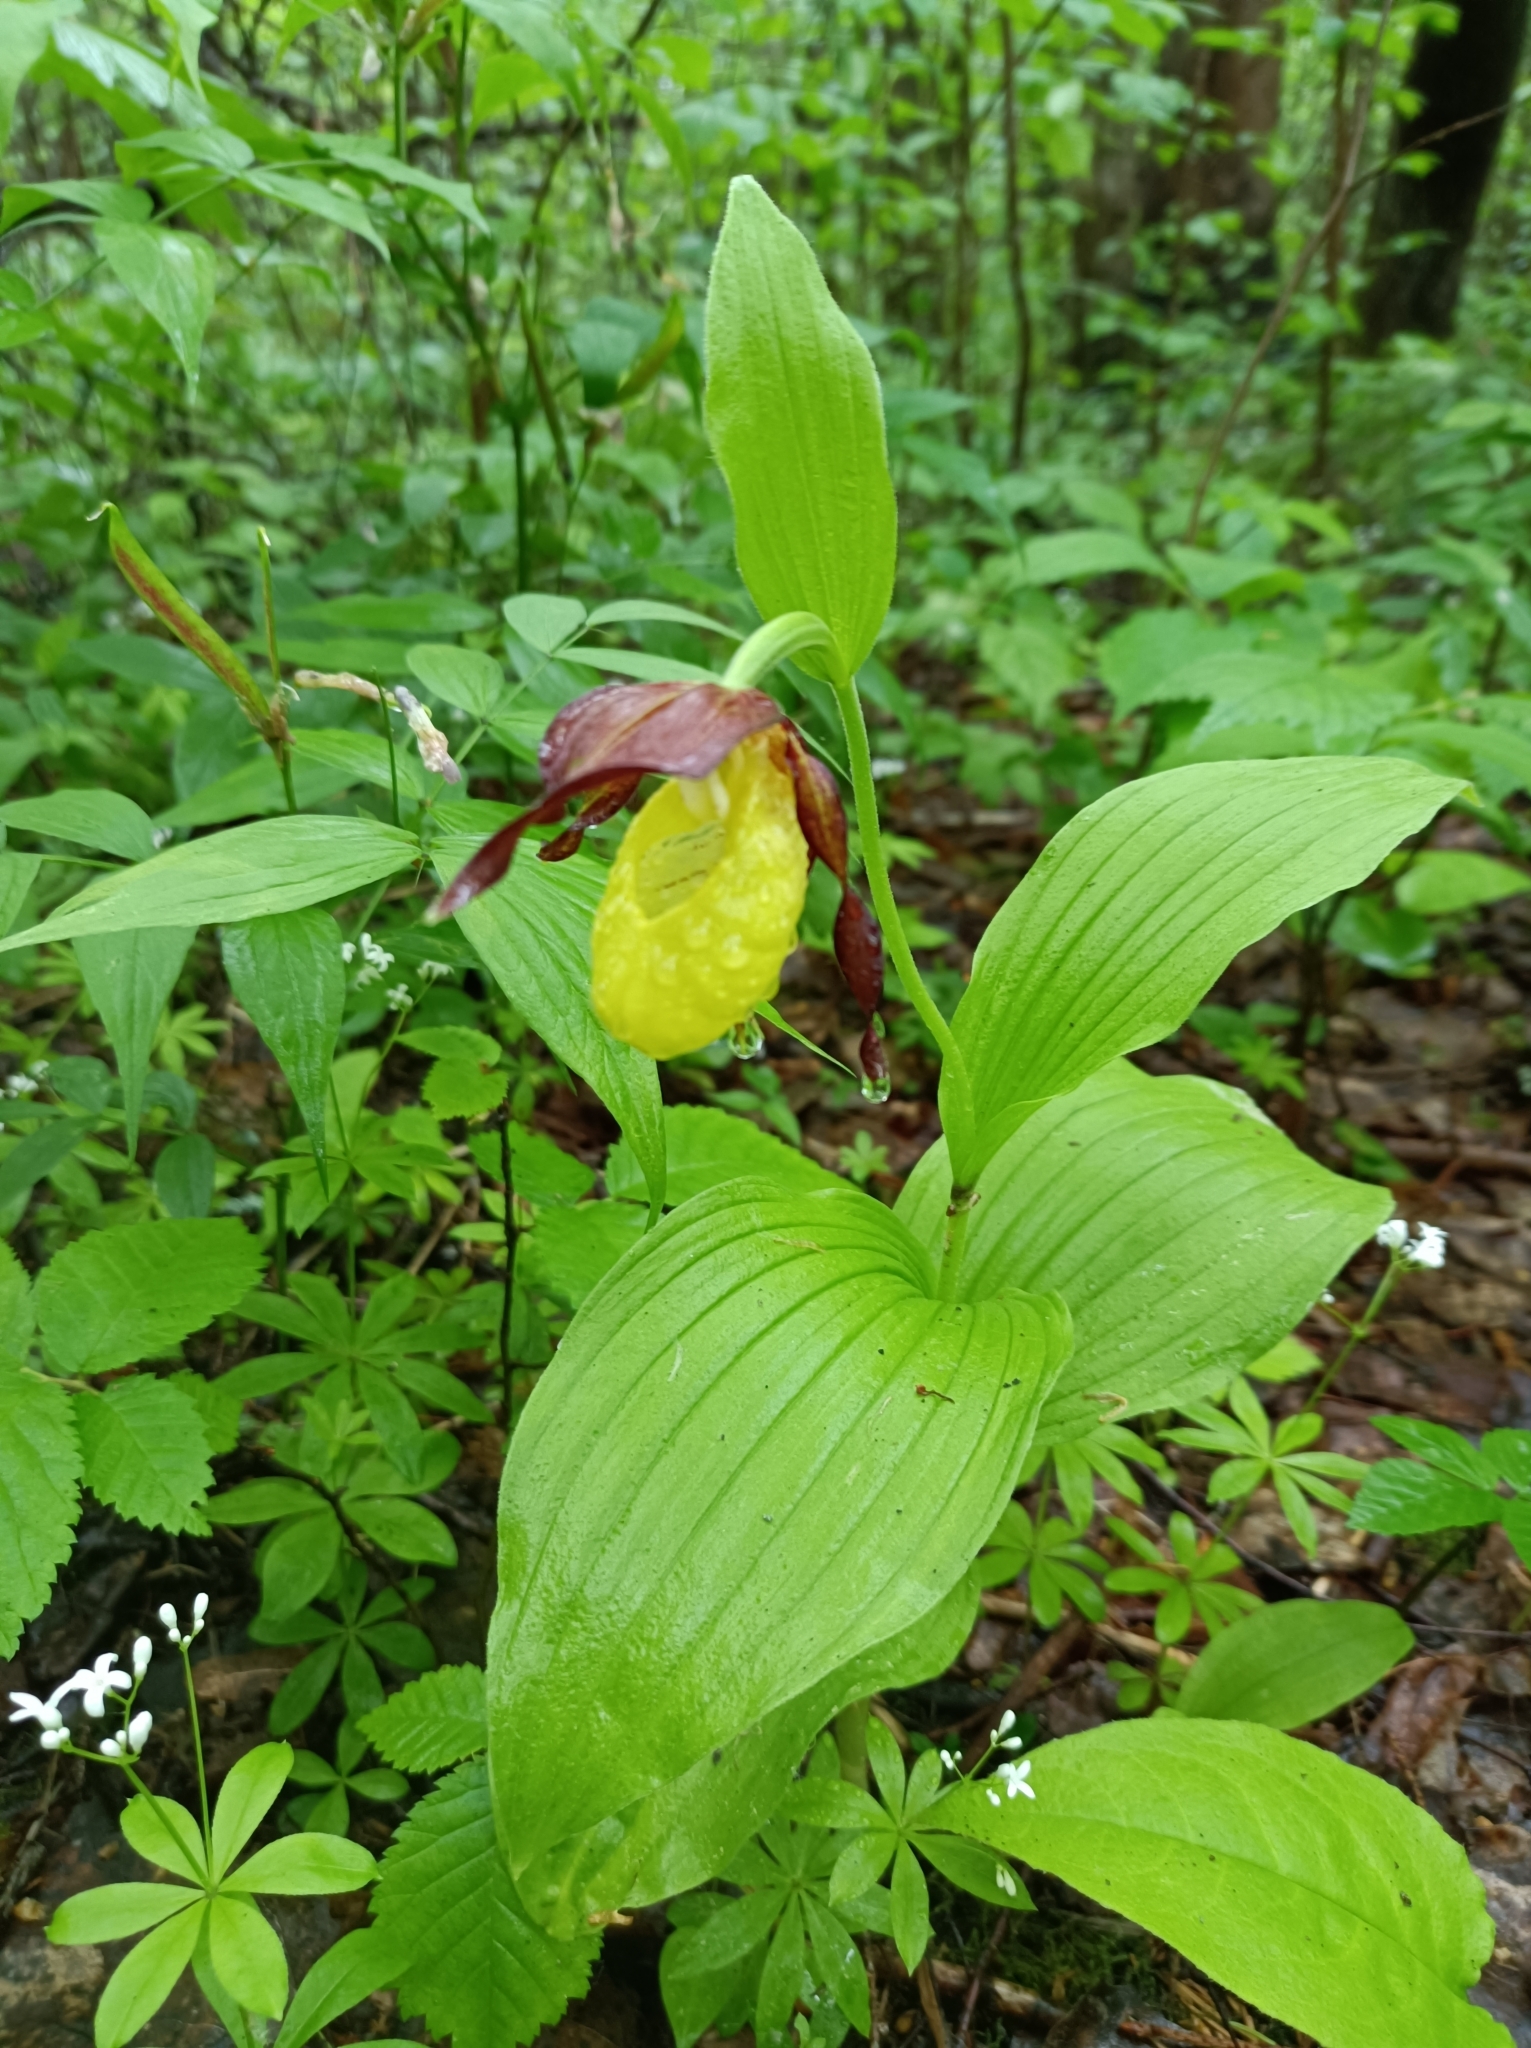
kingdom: Plantae
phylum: Tracheophyta
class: Liliopsida
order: Asparagales
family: Orchidaceae
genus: Cypripedium
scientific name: Cypripedium calceolus
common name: Lady's-slipper
